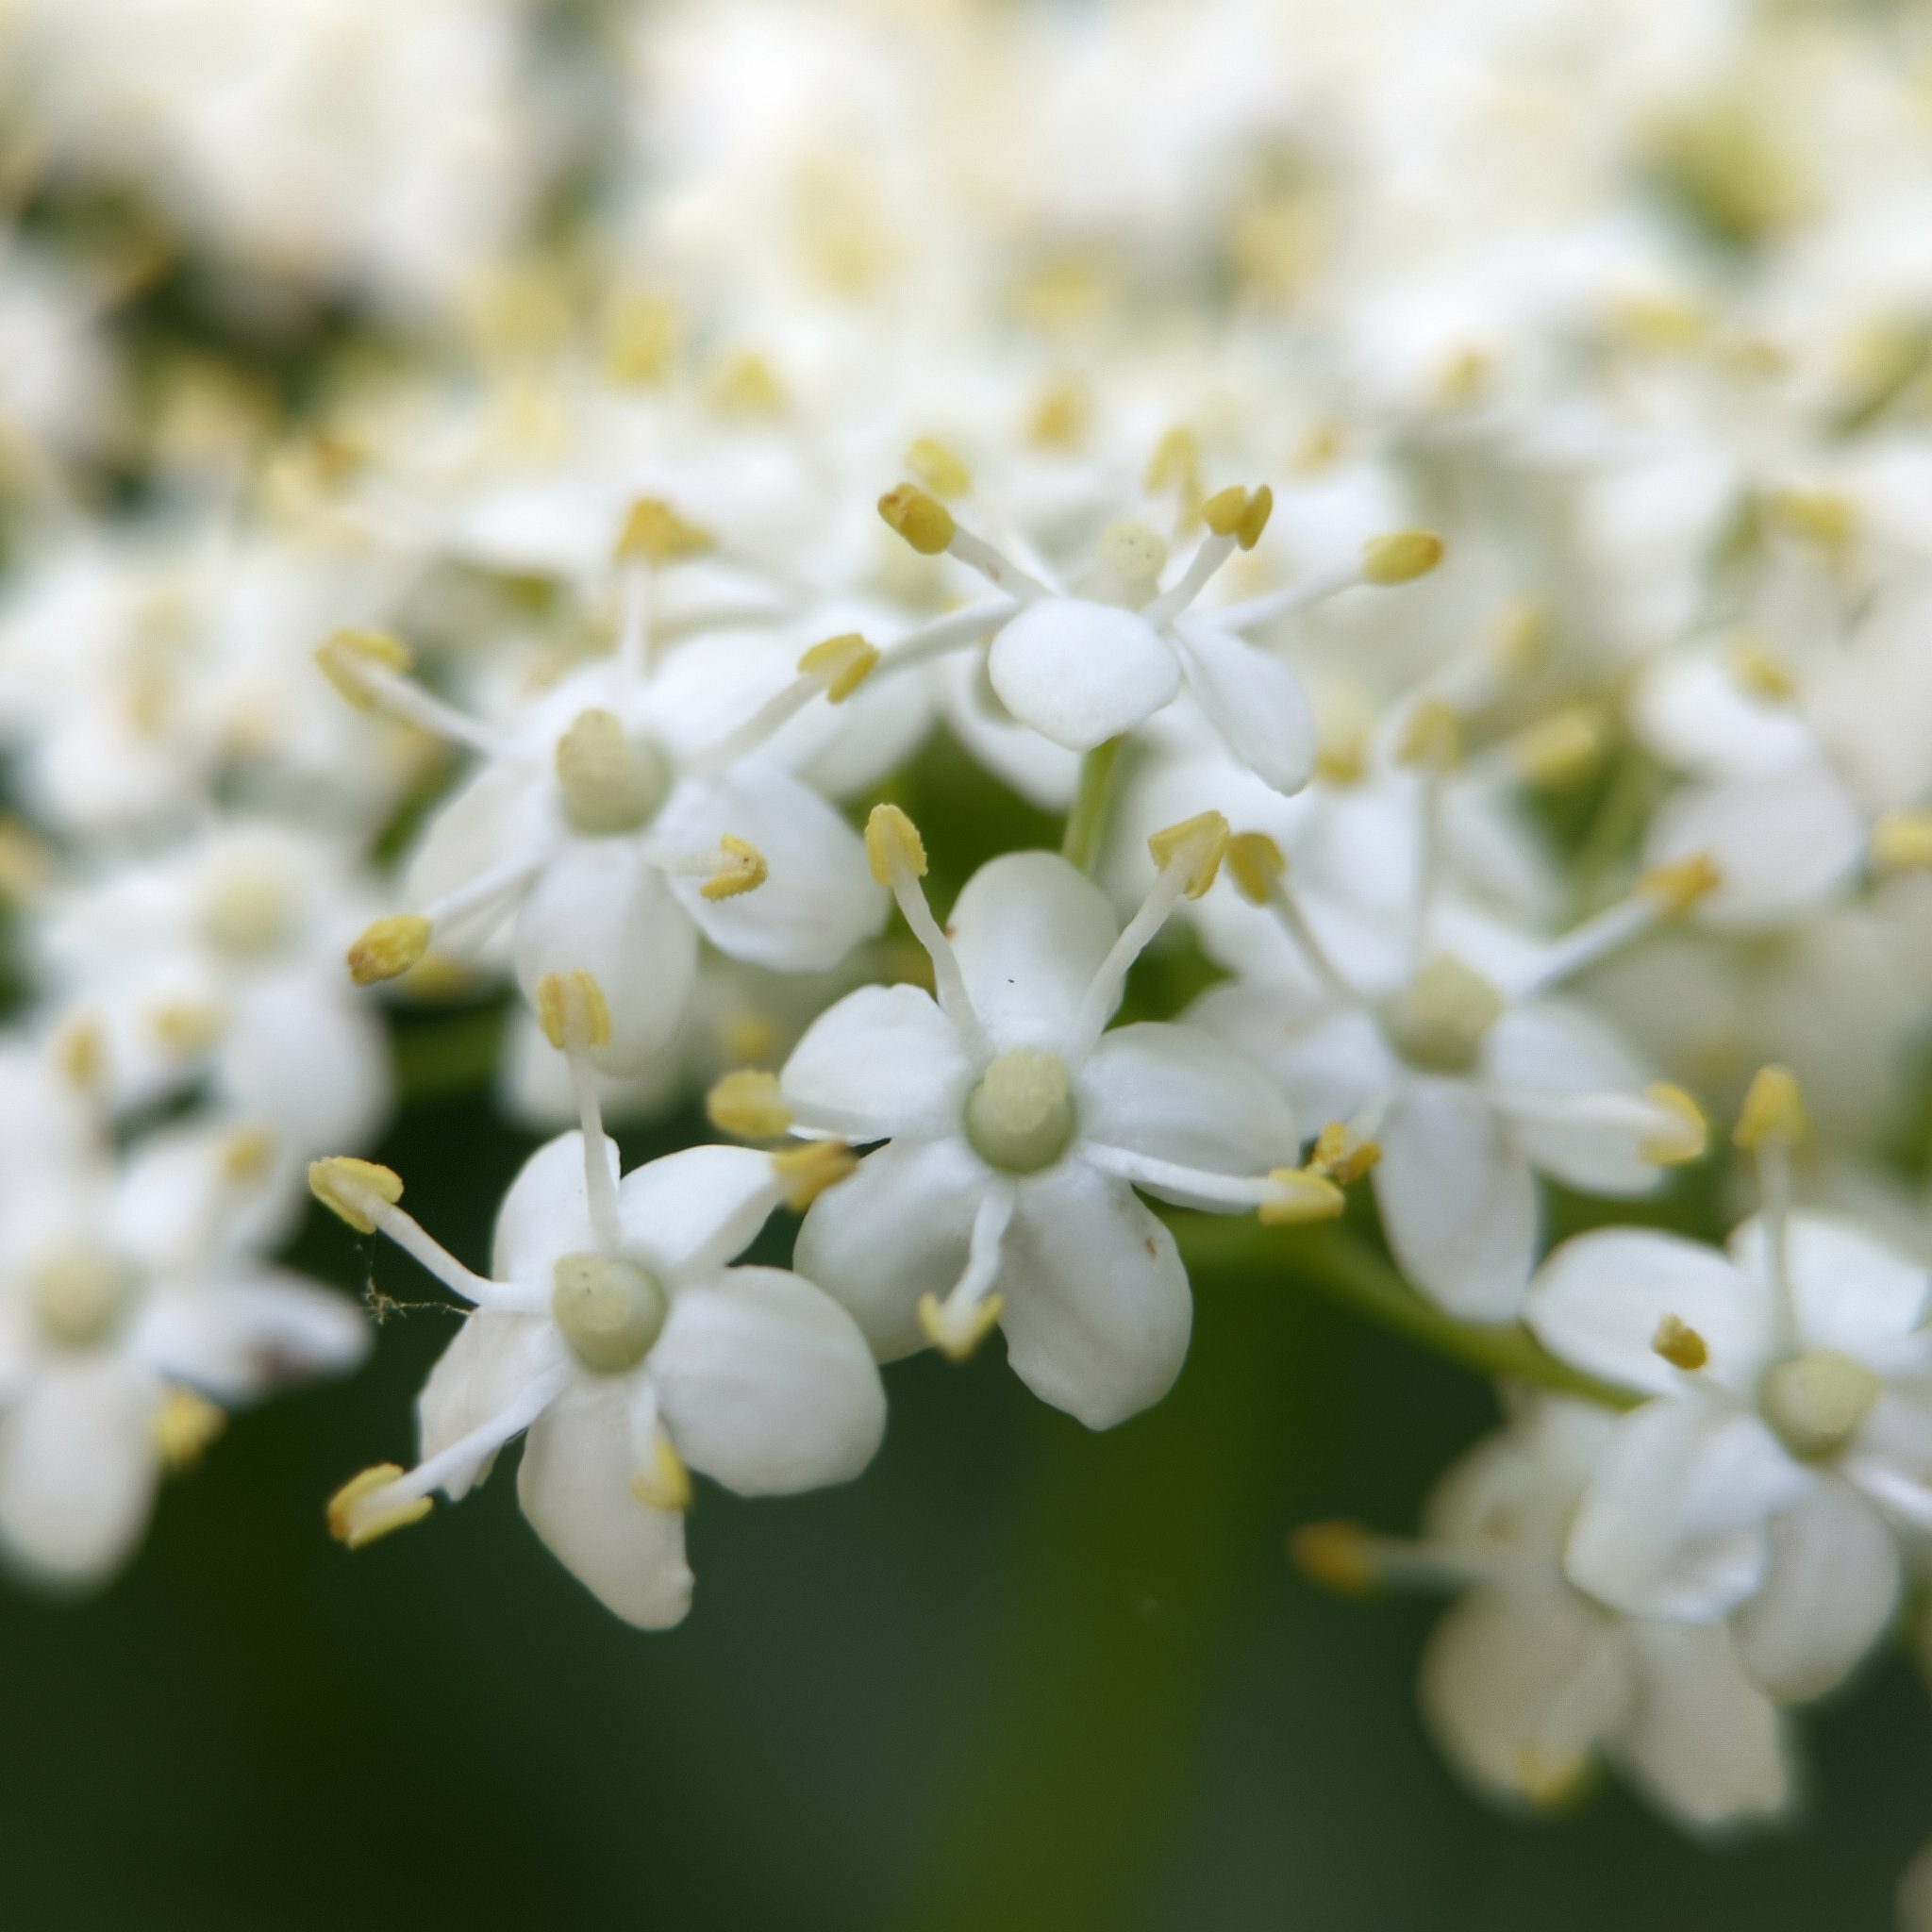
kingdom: Plantae
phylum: Tracheophyta
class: Magnoliopsida
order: Dipsacales
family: Viburnaceae
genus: Sambucus
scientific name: Sambucus nigra
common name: Elder
